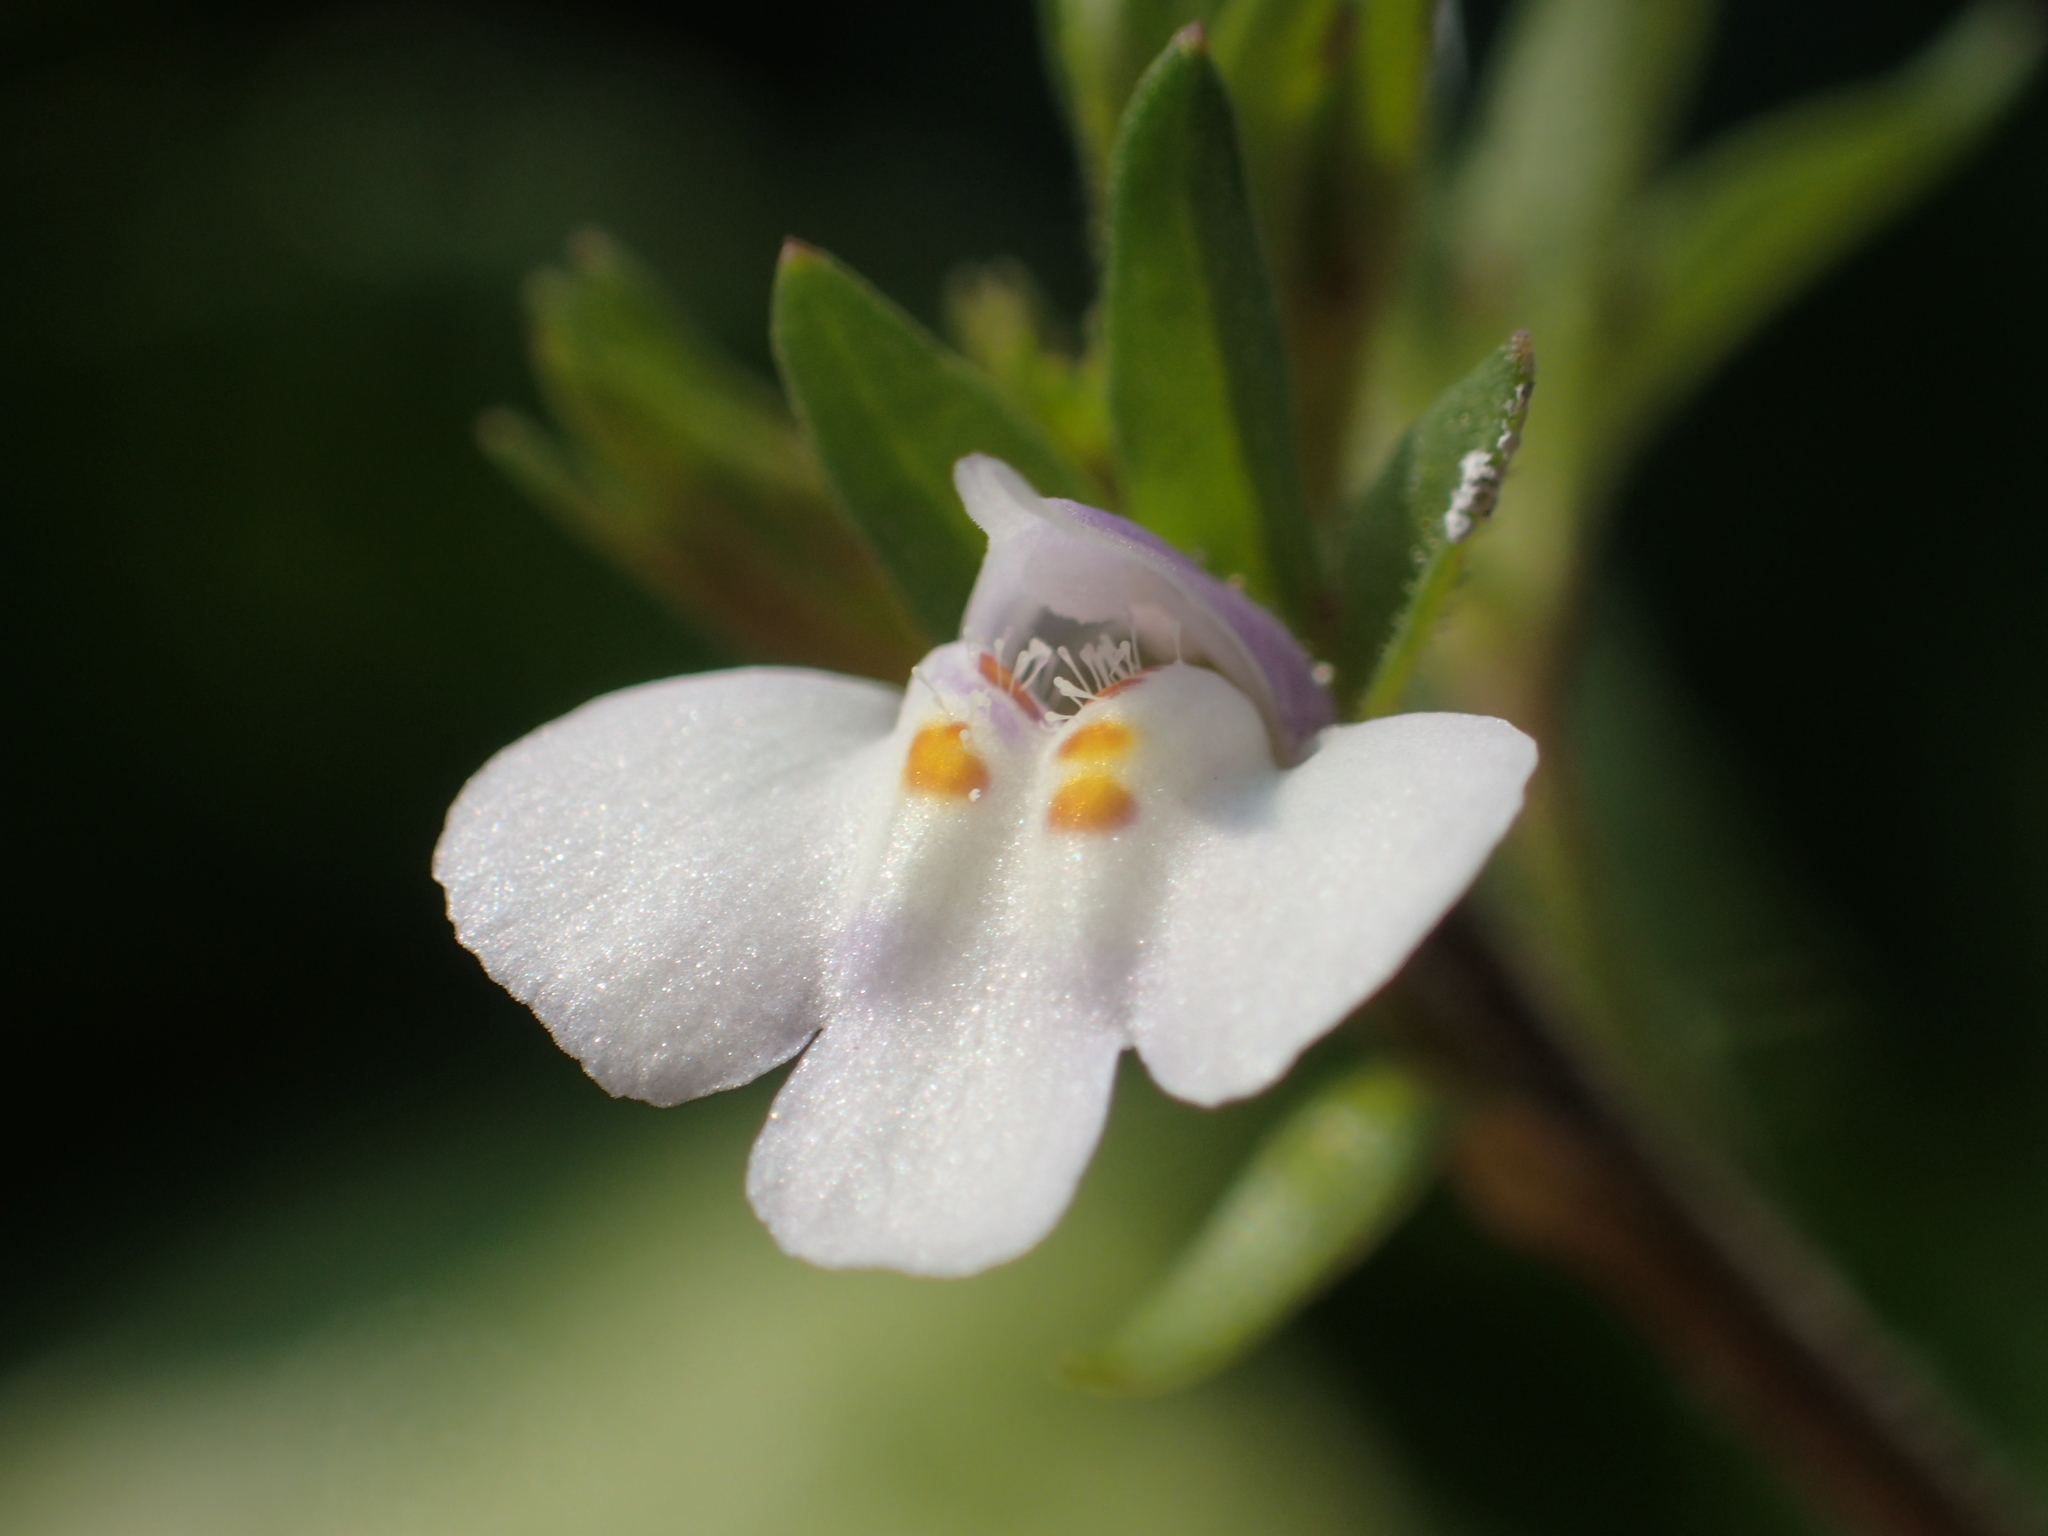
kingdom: Plantae
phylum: Tracheophyta
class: Magnoliopsida
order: Lamiales
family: Mazaceae
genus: Mazus
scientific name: Mazus pumilus
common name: Japanese mazus
